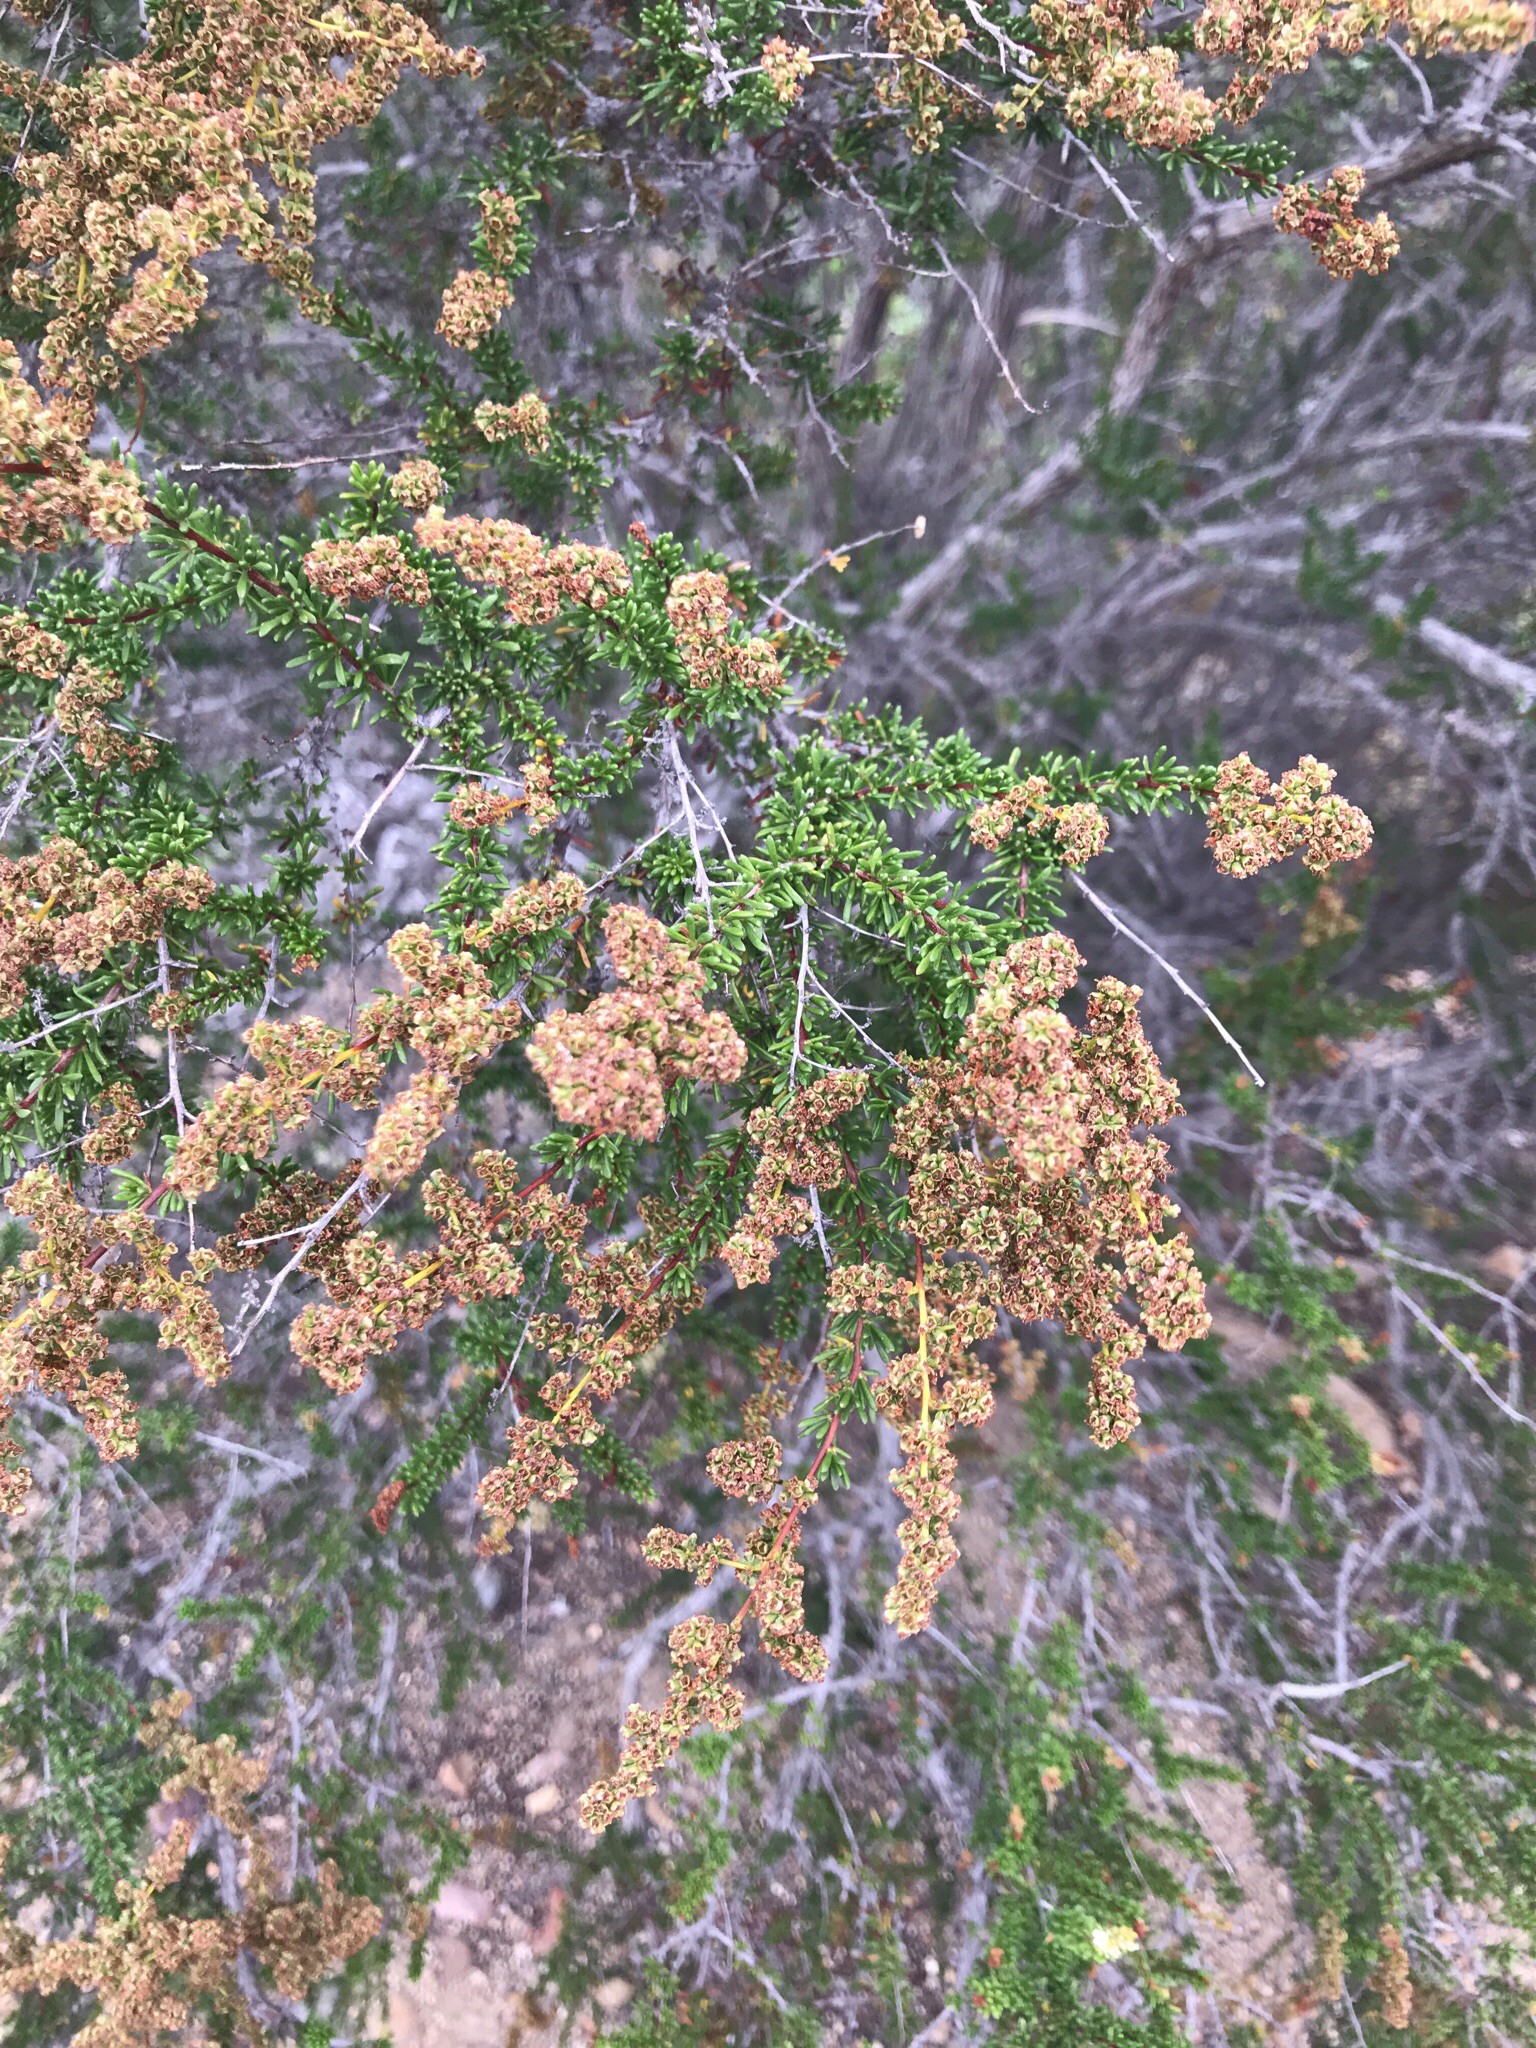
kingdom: Plantae
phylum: Tracheophyta
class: Magnoliopsida
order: Rosales
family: Rosaceae
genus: Adenostoma
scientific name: Adenostoma fasciculatum
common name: Chamise
